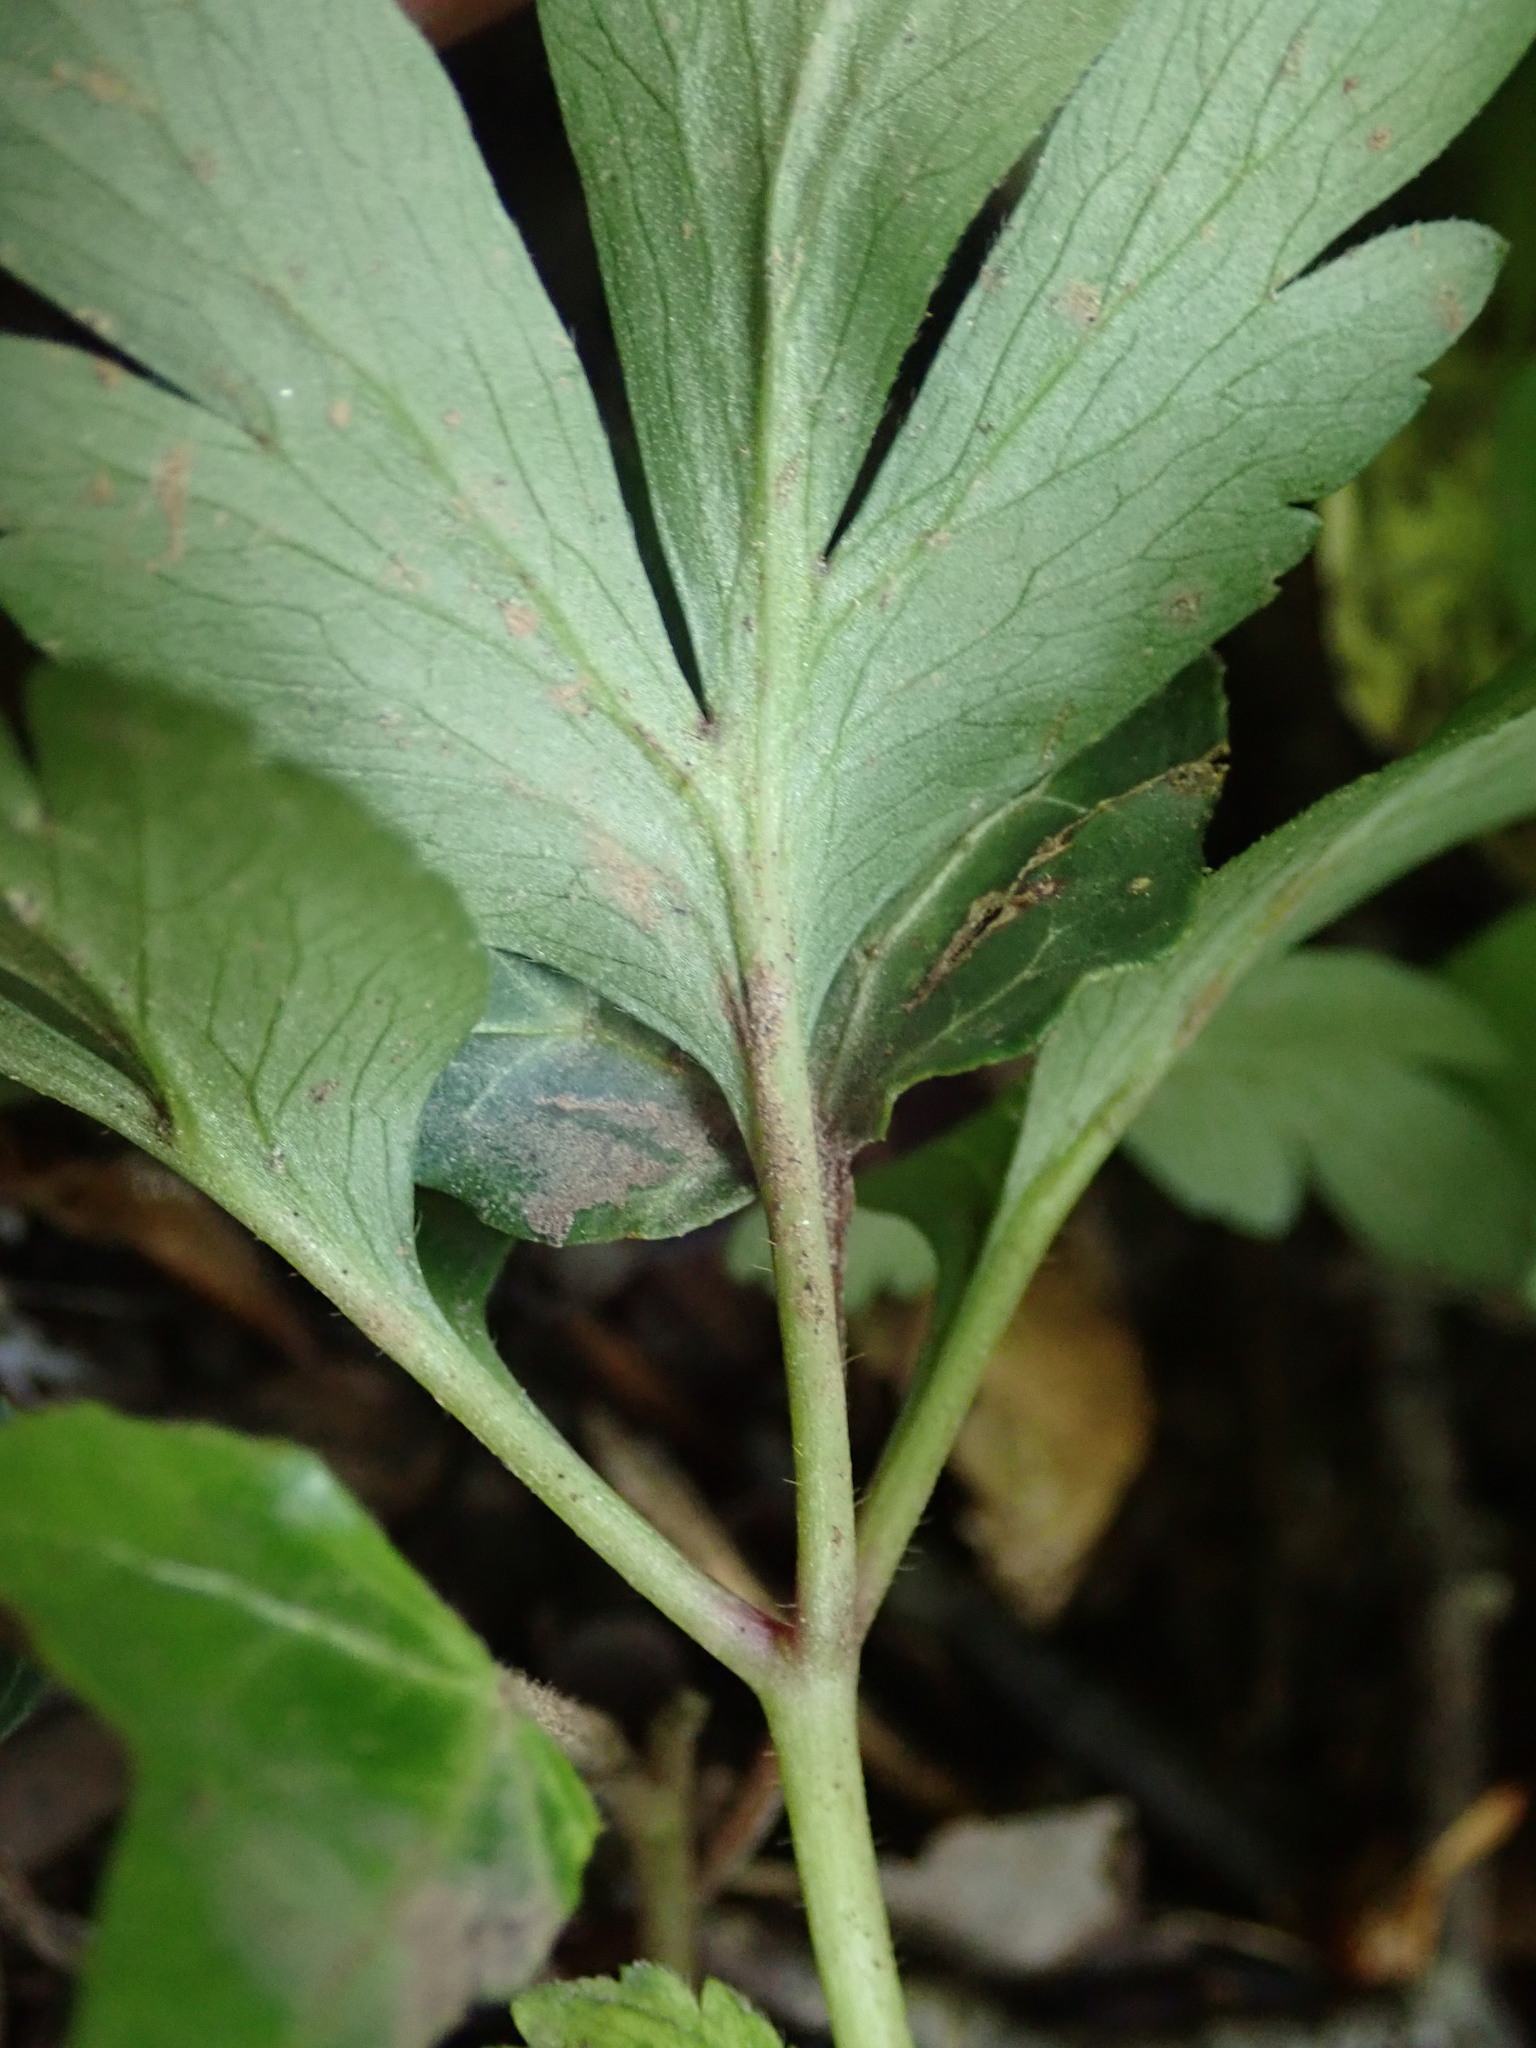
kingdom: Plantae
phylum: Tracheophyta
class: Magnoliopsida
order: Ranunculales
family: Ranunculaceae
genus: Anemone
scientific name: Anemone nemorosa
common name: Wood anemone
